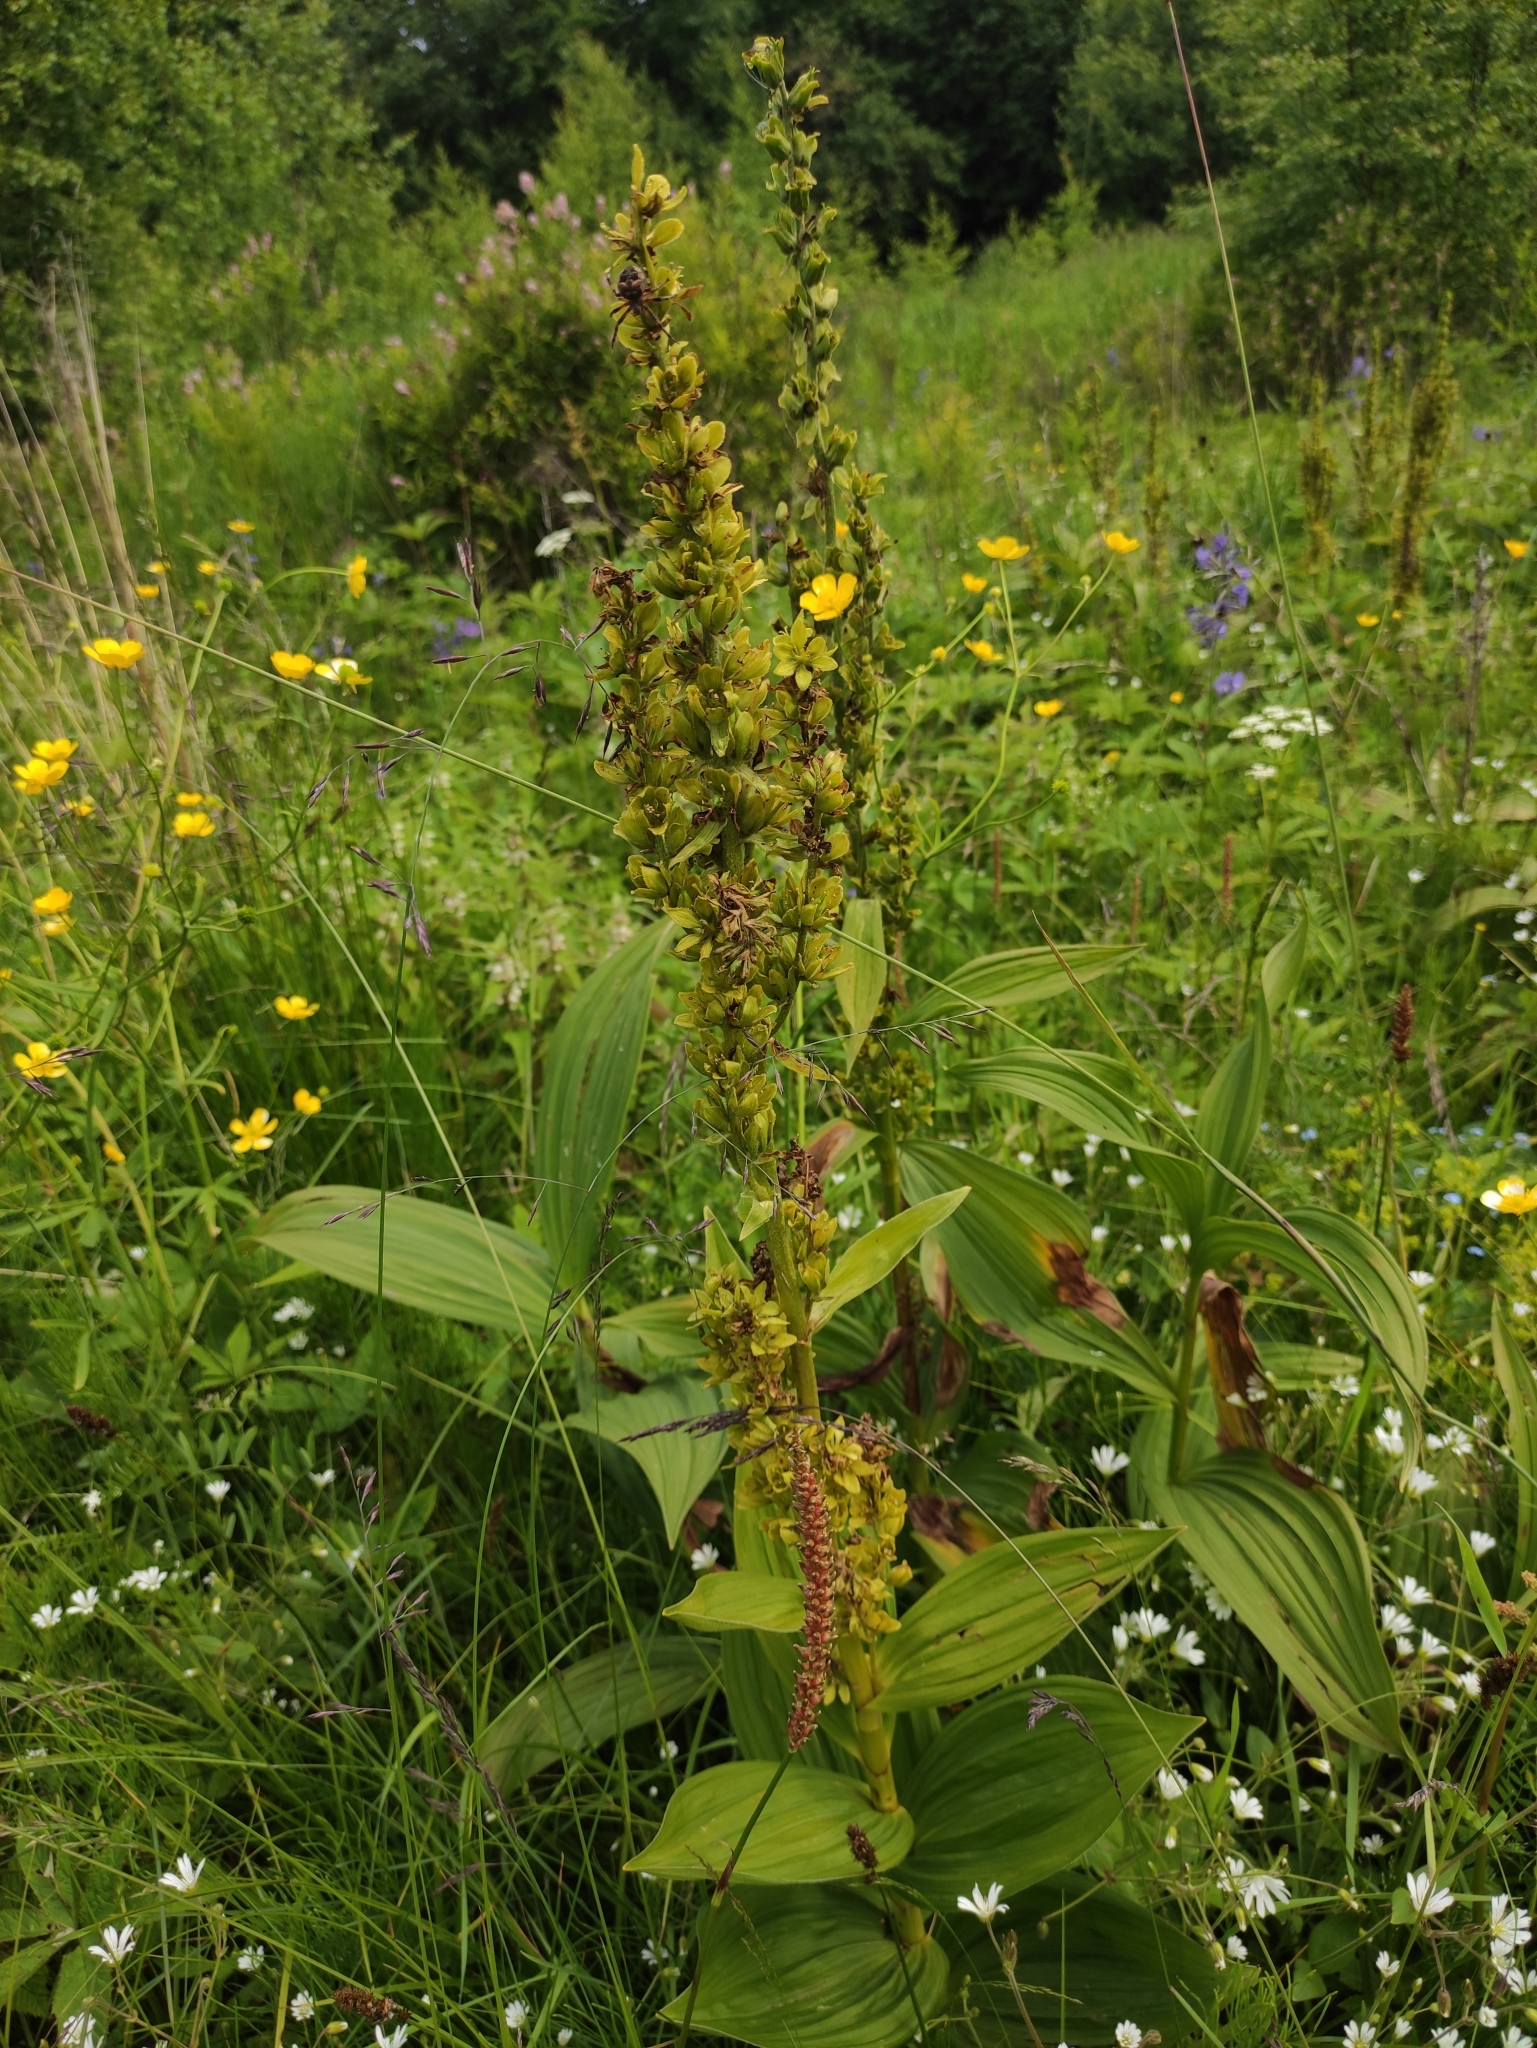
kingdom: Plantae
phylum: Tracheophyta
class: Liliopsida
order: Liliales
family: Melanthiaceae
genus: Veratrum
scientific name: Veratrum lobelianum
